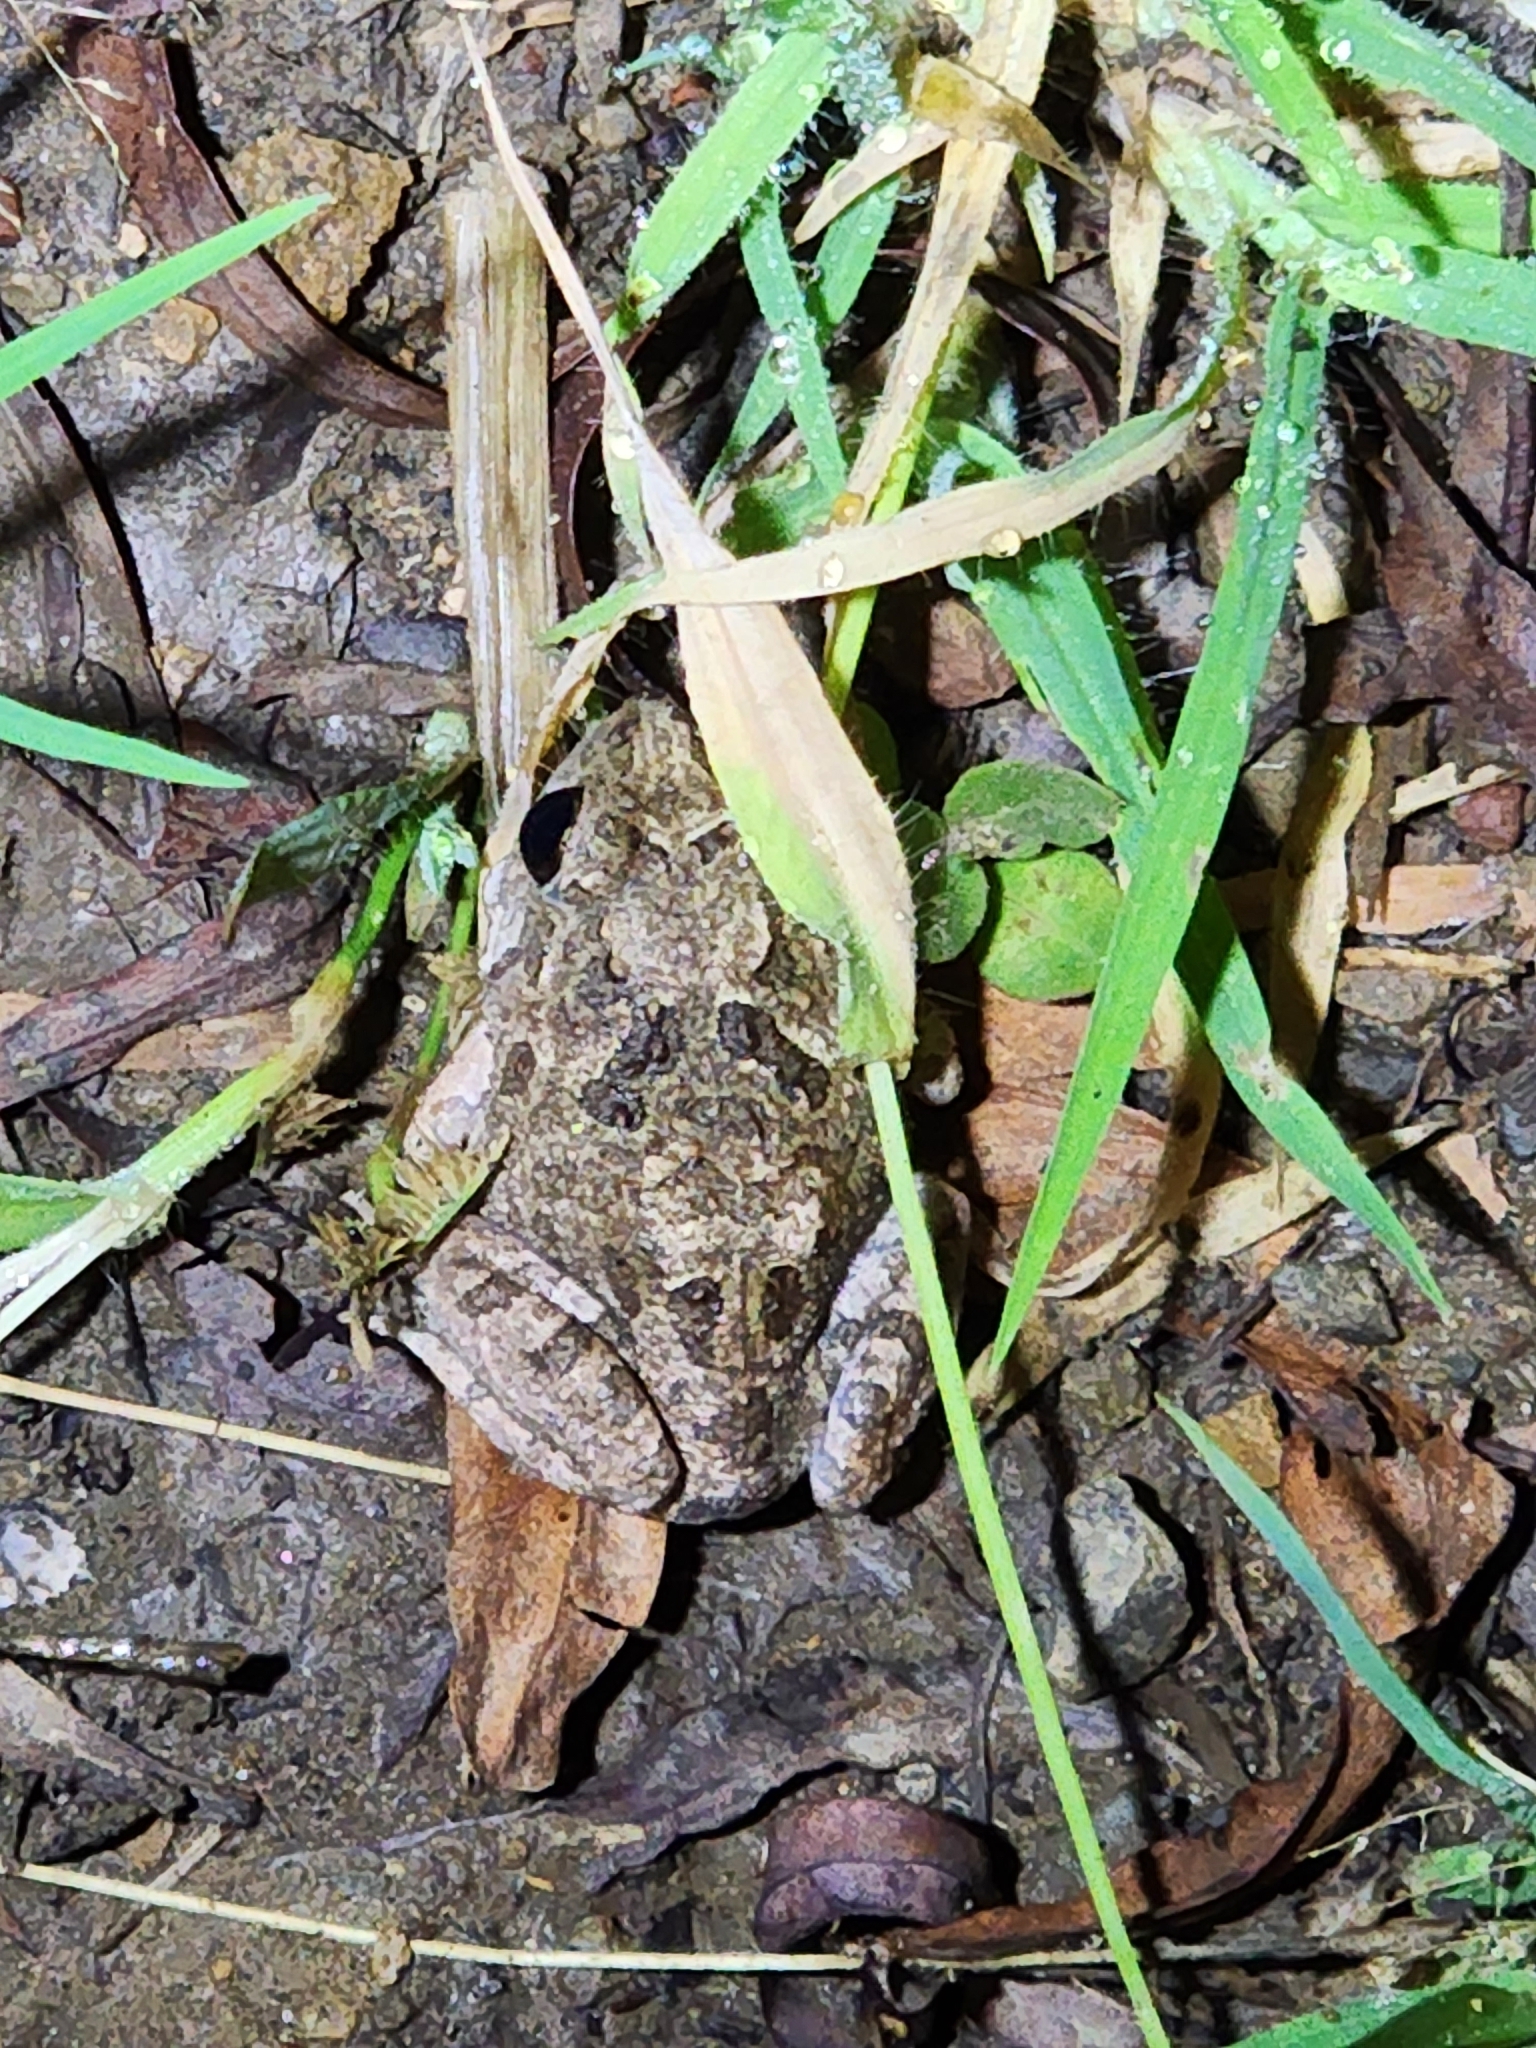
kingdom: Animalia
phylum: Chordata
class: Amphibia
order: Anura
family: Limnodynastidae
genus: Platyplectrum
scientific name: Platyplectrum ornatum
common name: Ornate burrowing frog
